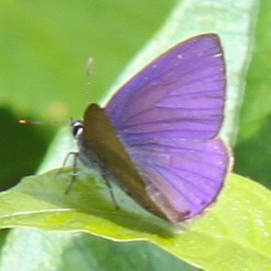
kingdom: Animalia
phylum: Arthropoda
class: Insecta
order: Lepidoptera
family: Lycaenidae
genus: Anthene
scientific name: Anthene emolus
